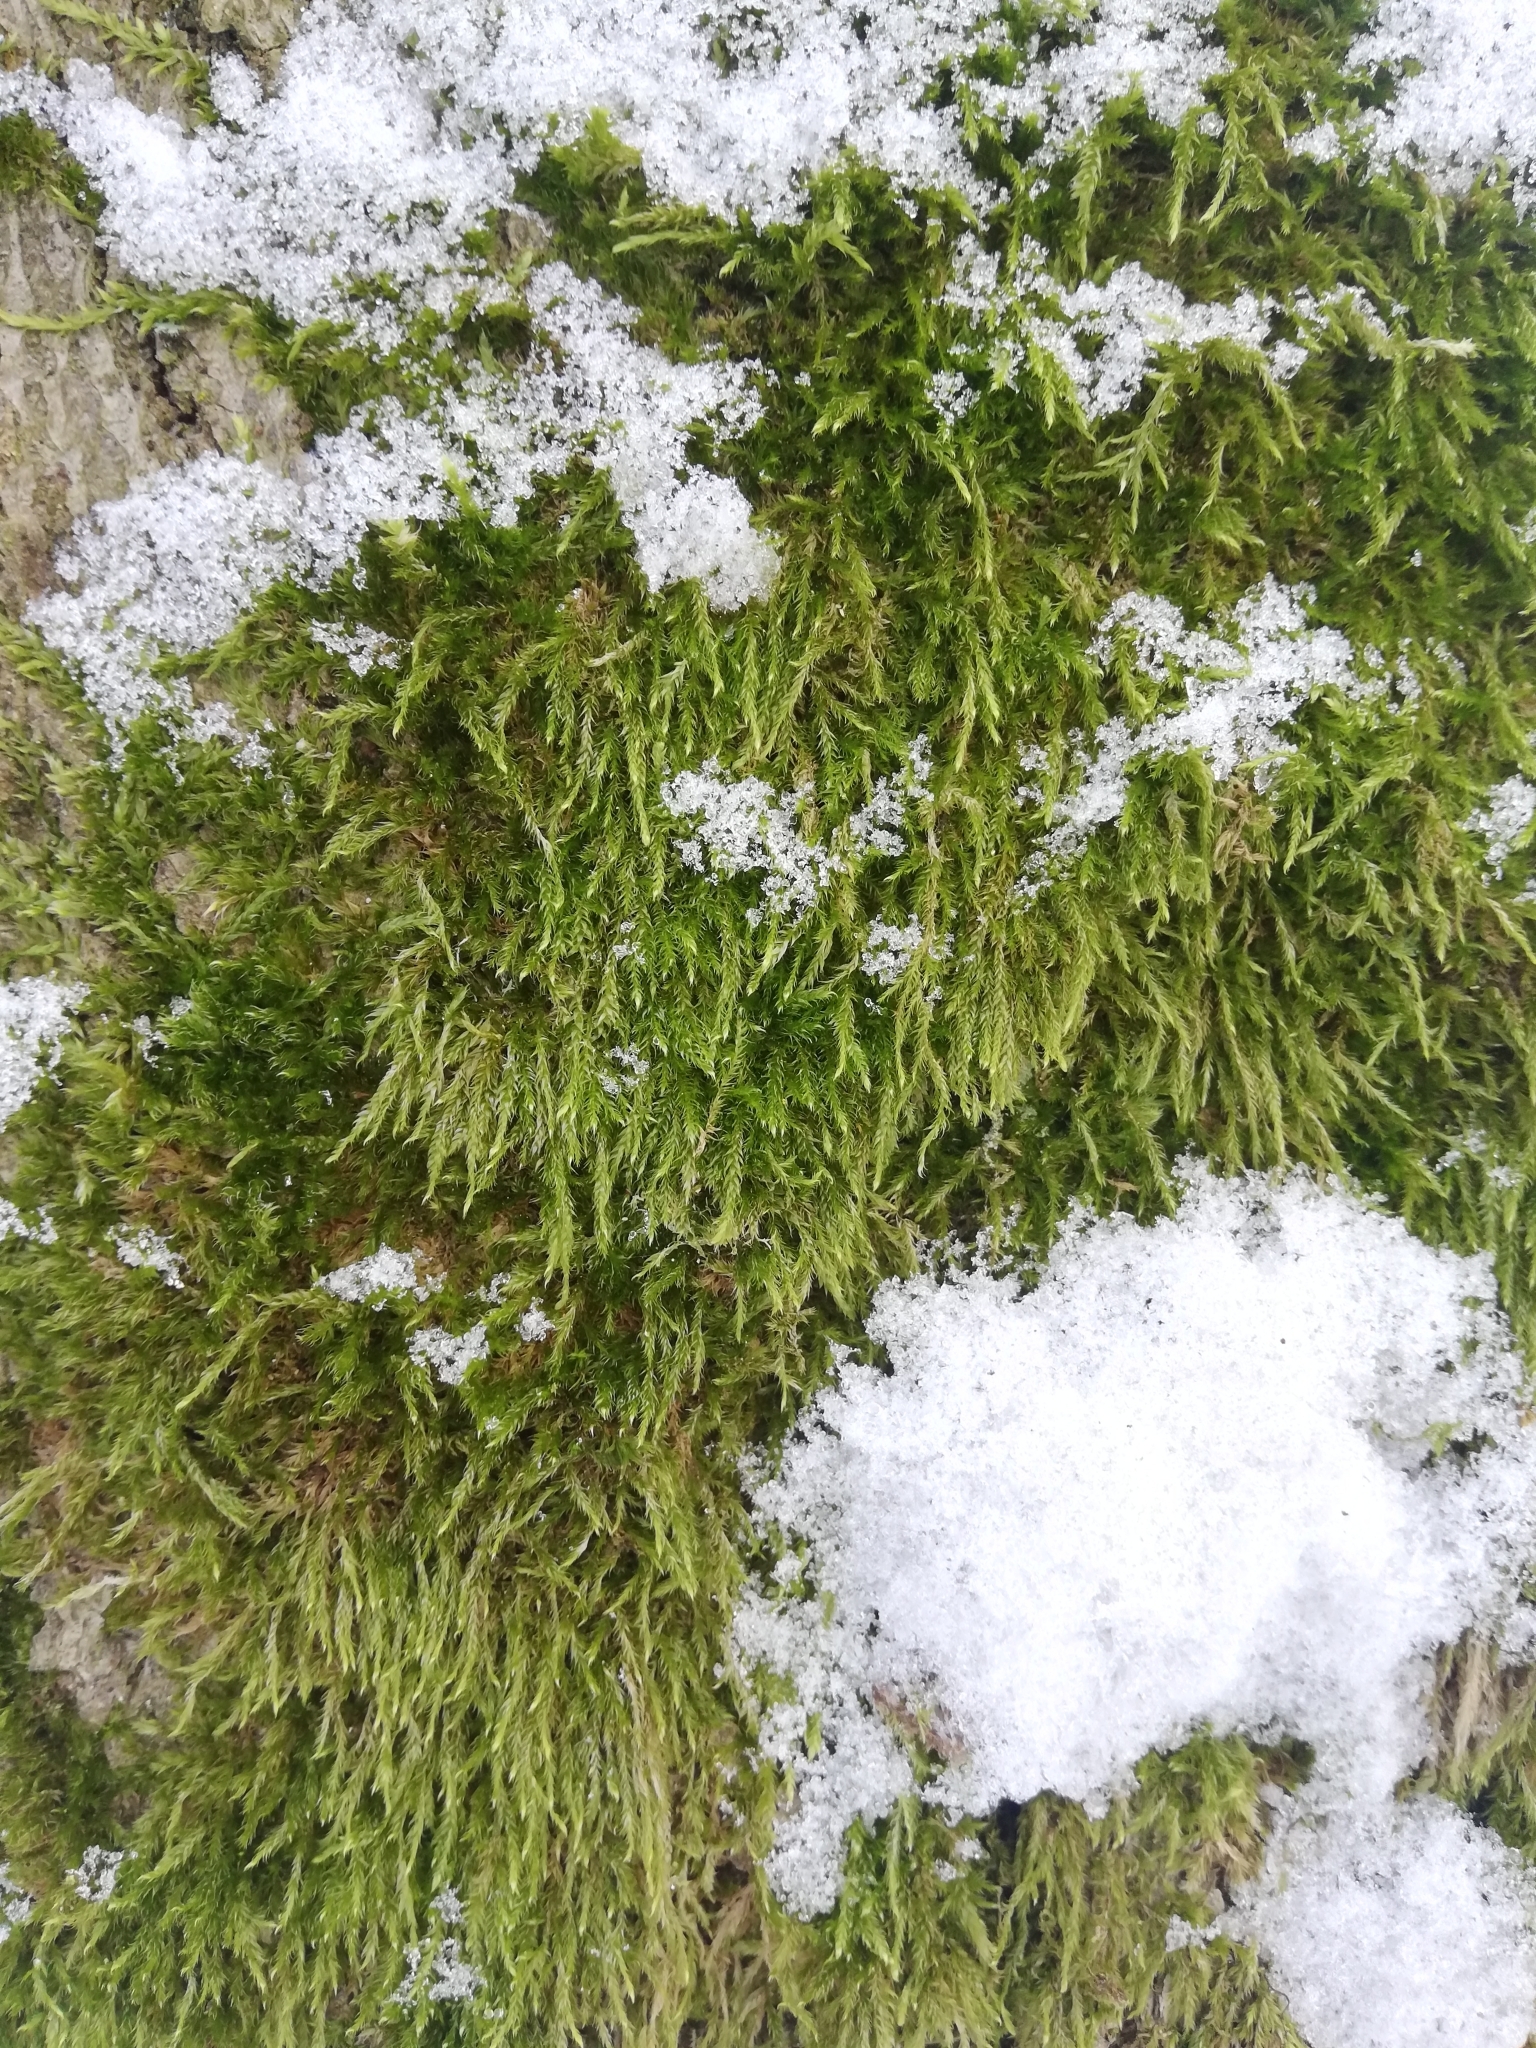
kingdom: Plantae
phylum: Bryophyta
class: Bryopsida
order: Hypnales
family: Hypnaceae
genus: Hypnum
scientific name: Hypnum cupressiforme
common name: Cypress-leaved plait-moss
